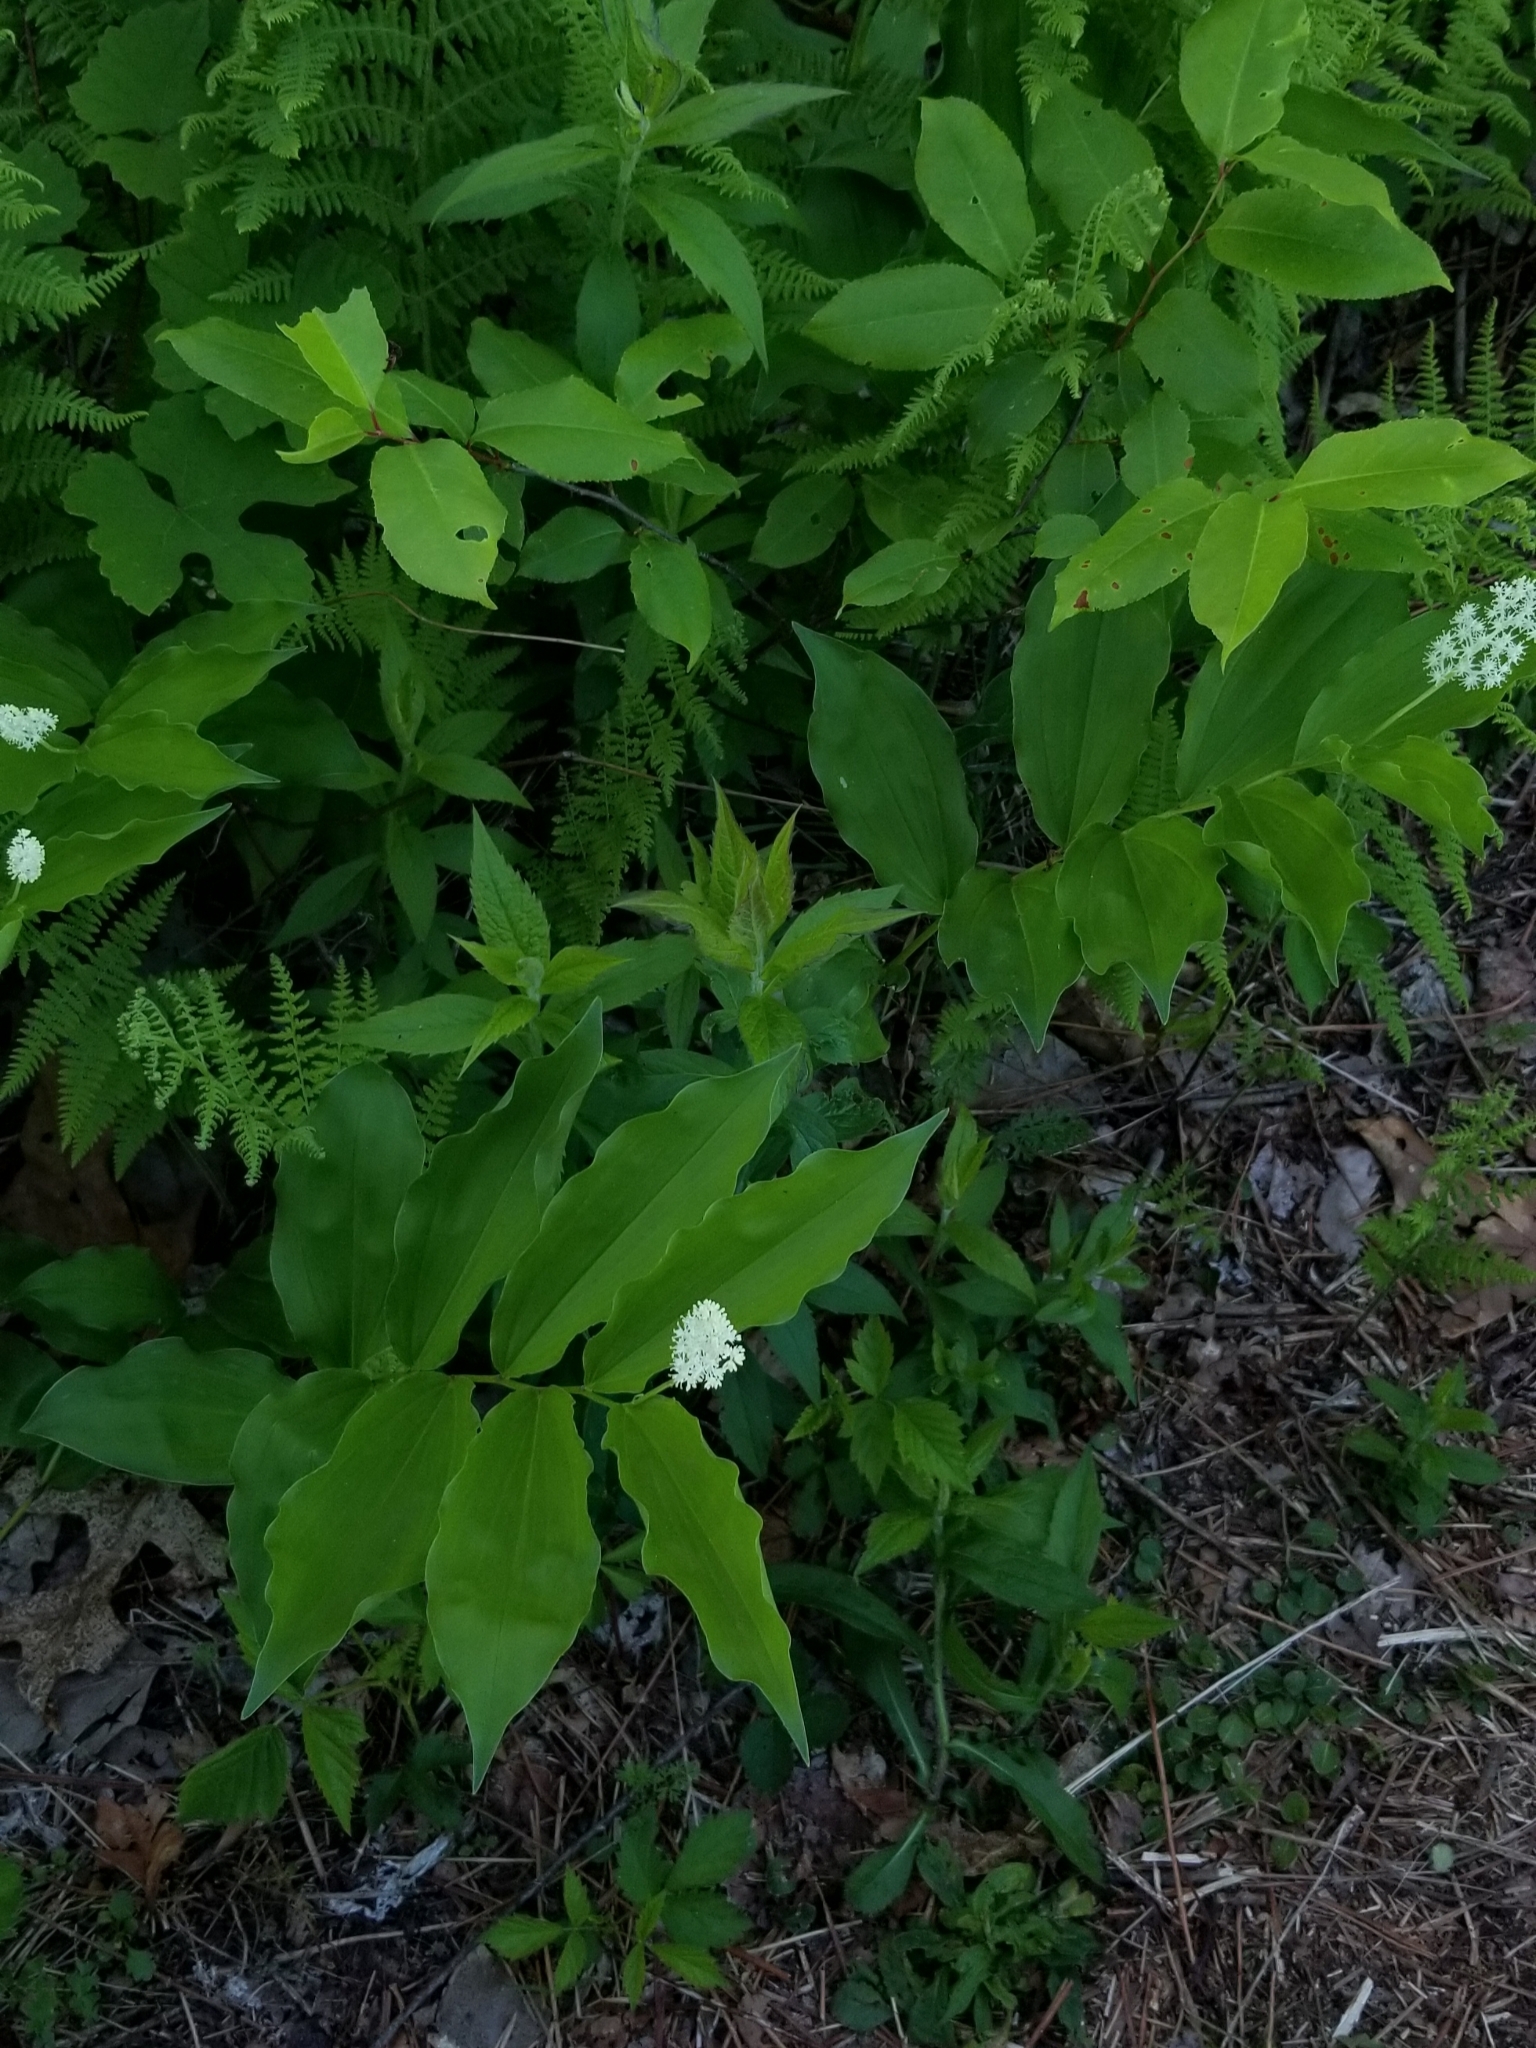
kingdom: Plantae
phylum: Tracheophyta
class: Liliopsida
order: Asparagales
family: Asparagaceae
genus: Maianthemum
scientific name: Maianthemum racemosum
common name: False spikenard
